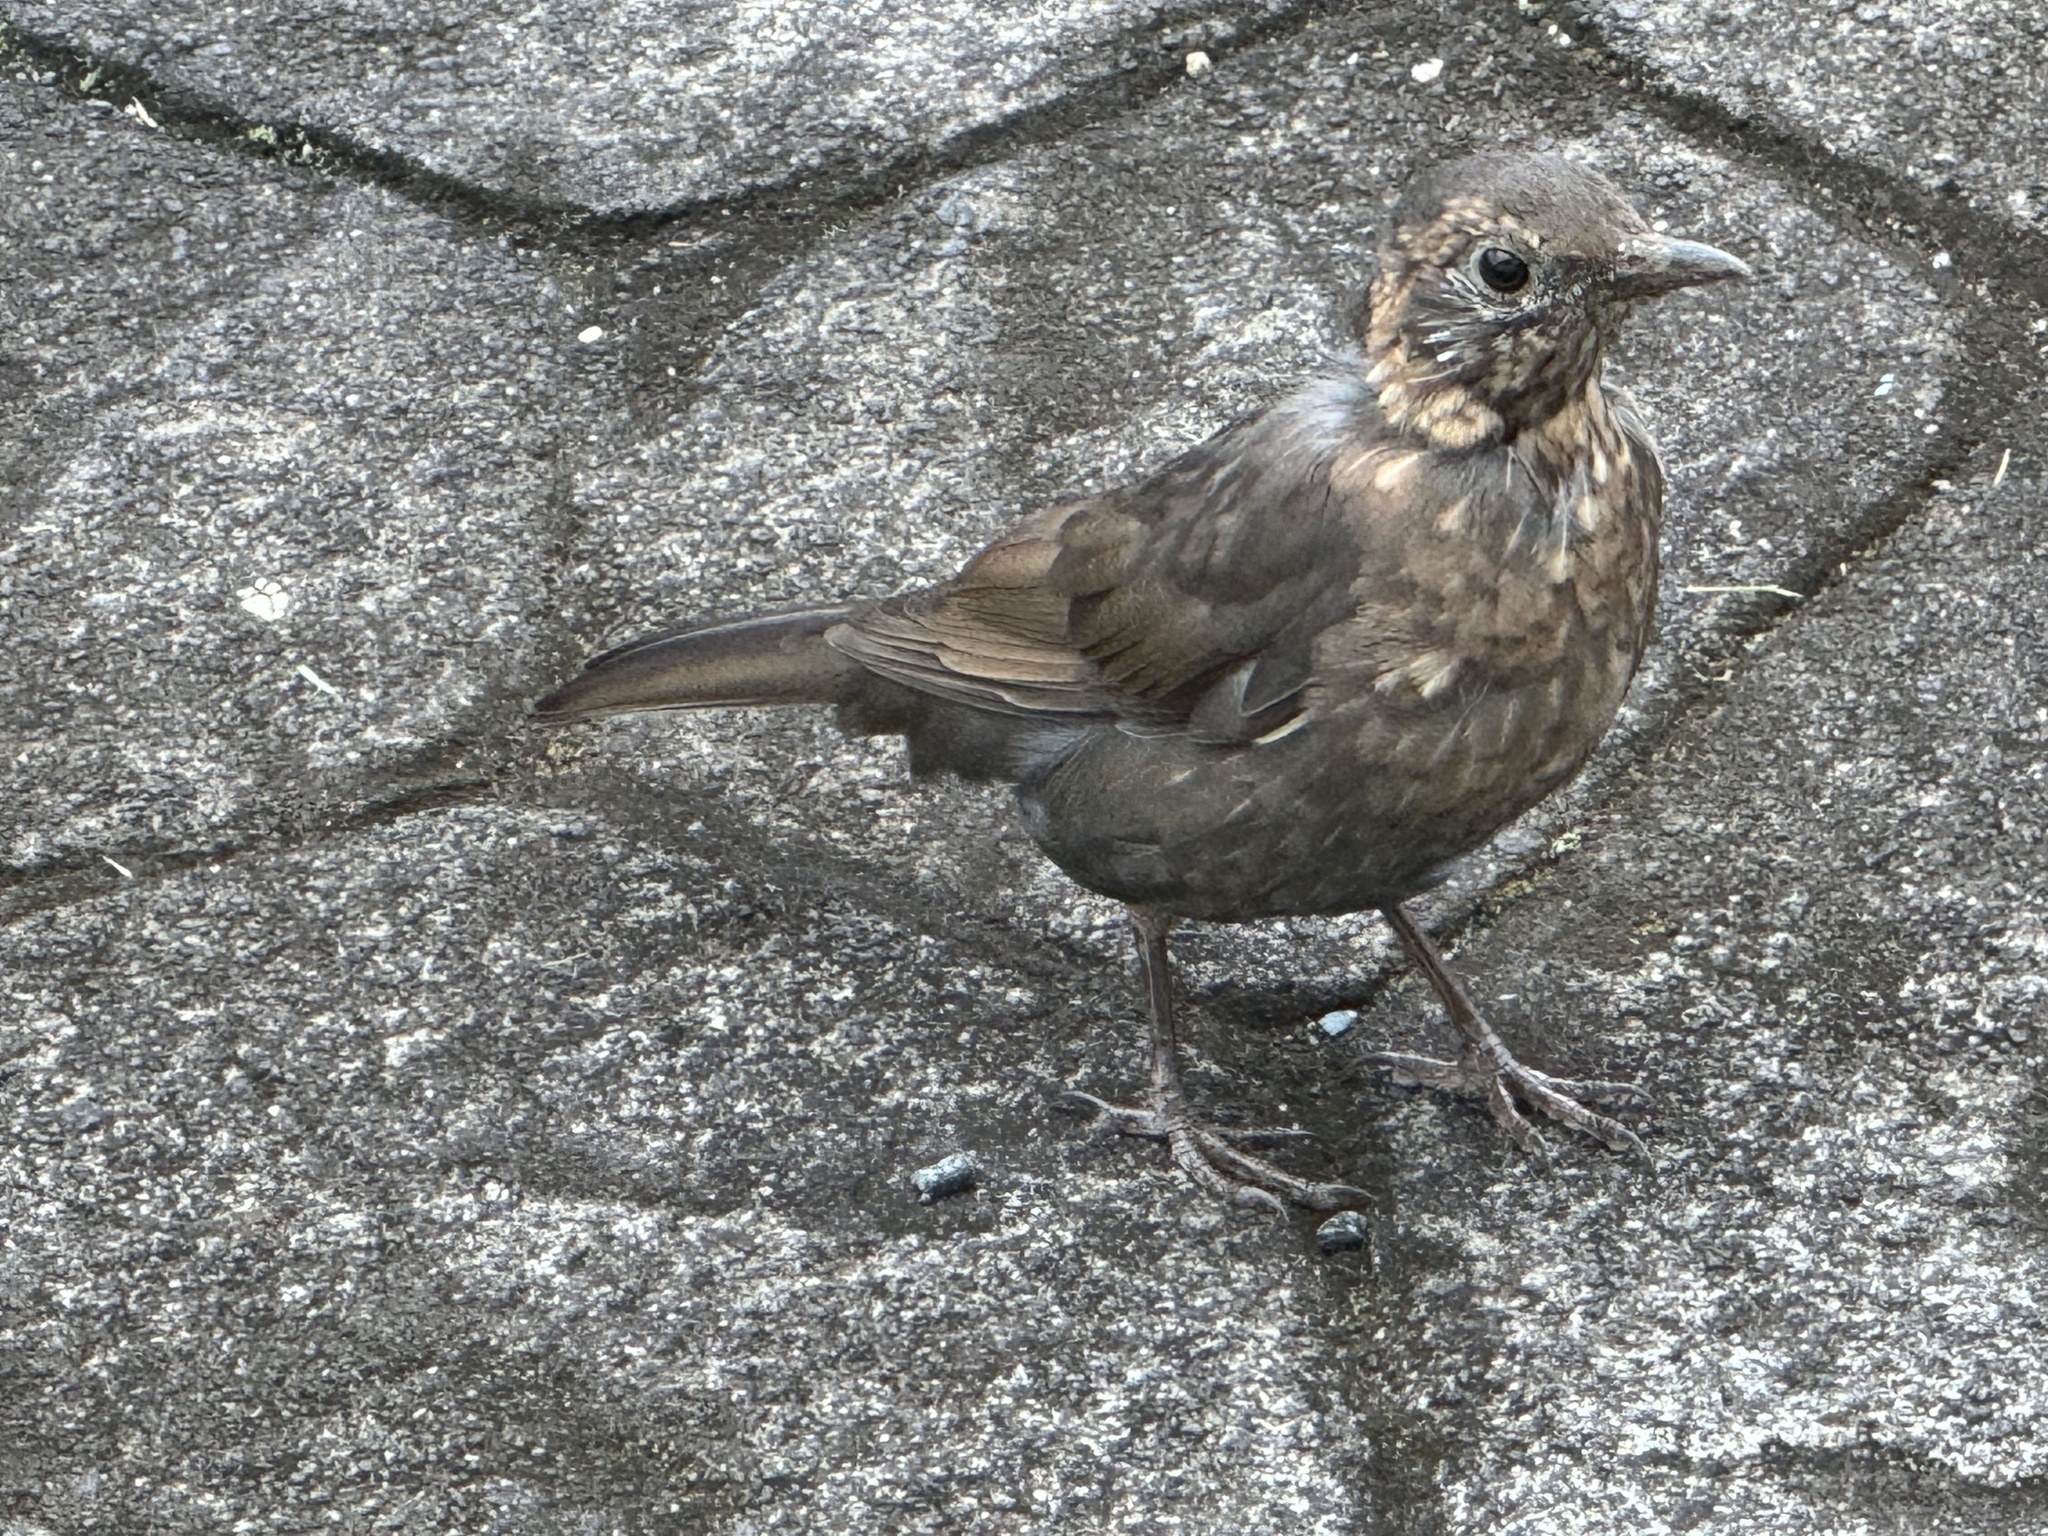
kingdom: Animalia
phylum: Chordata
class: Aves
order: Passeriformes
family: Turdidae
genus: Turdus
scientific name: Turdus merula
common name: Common blackbird
